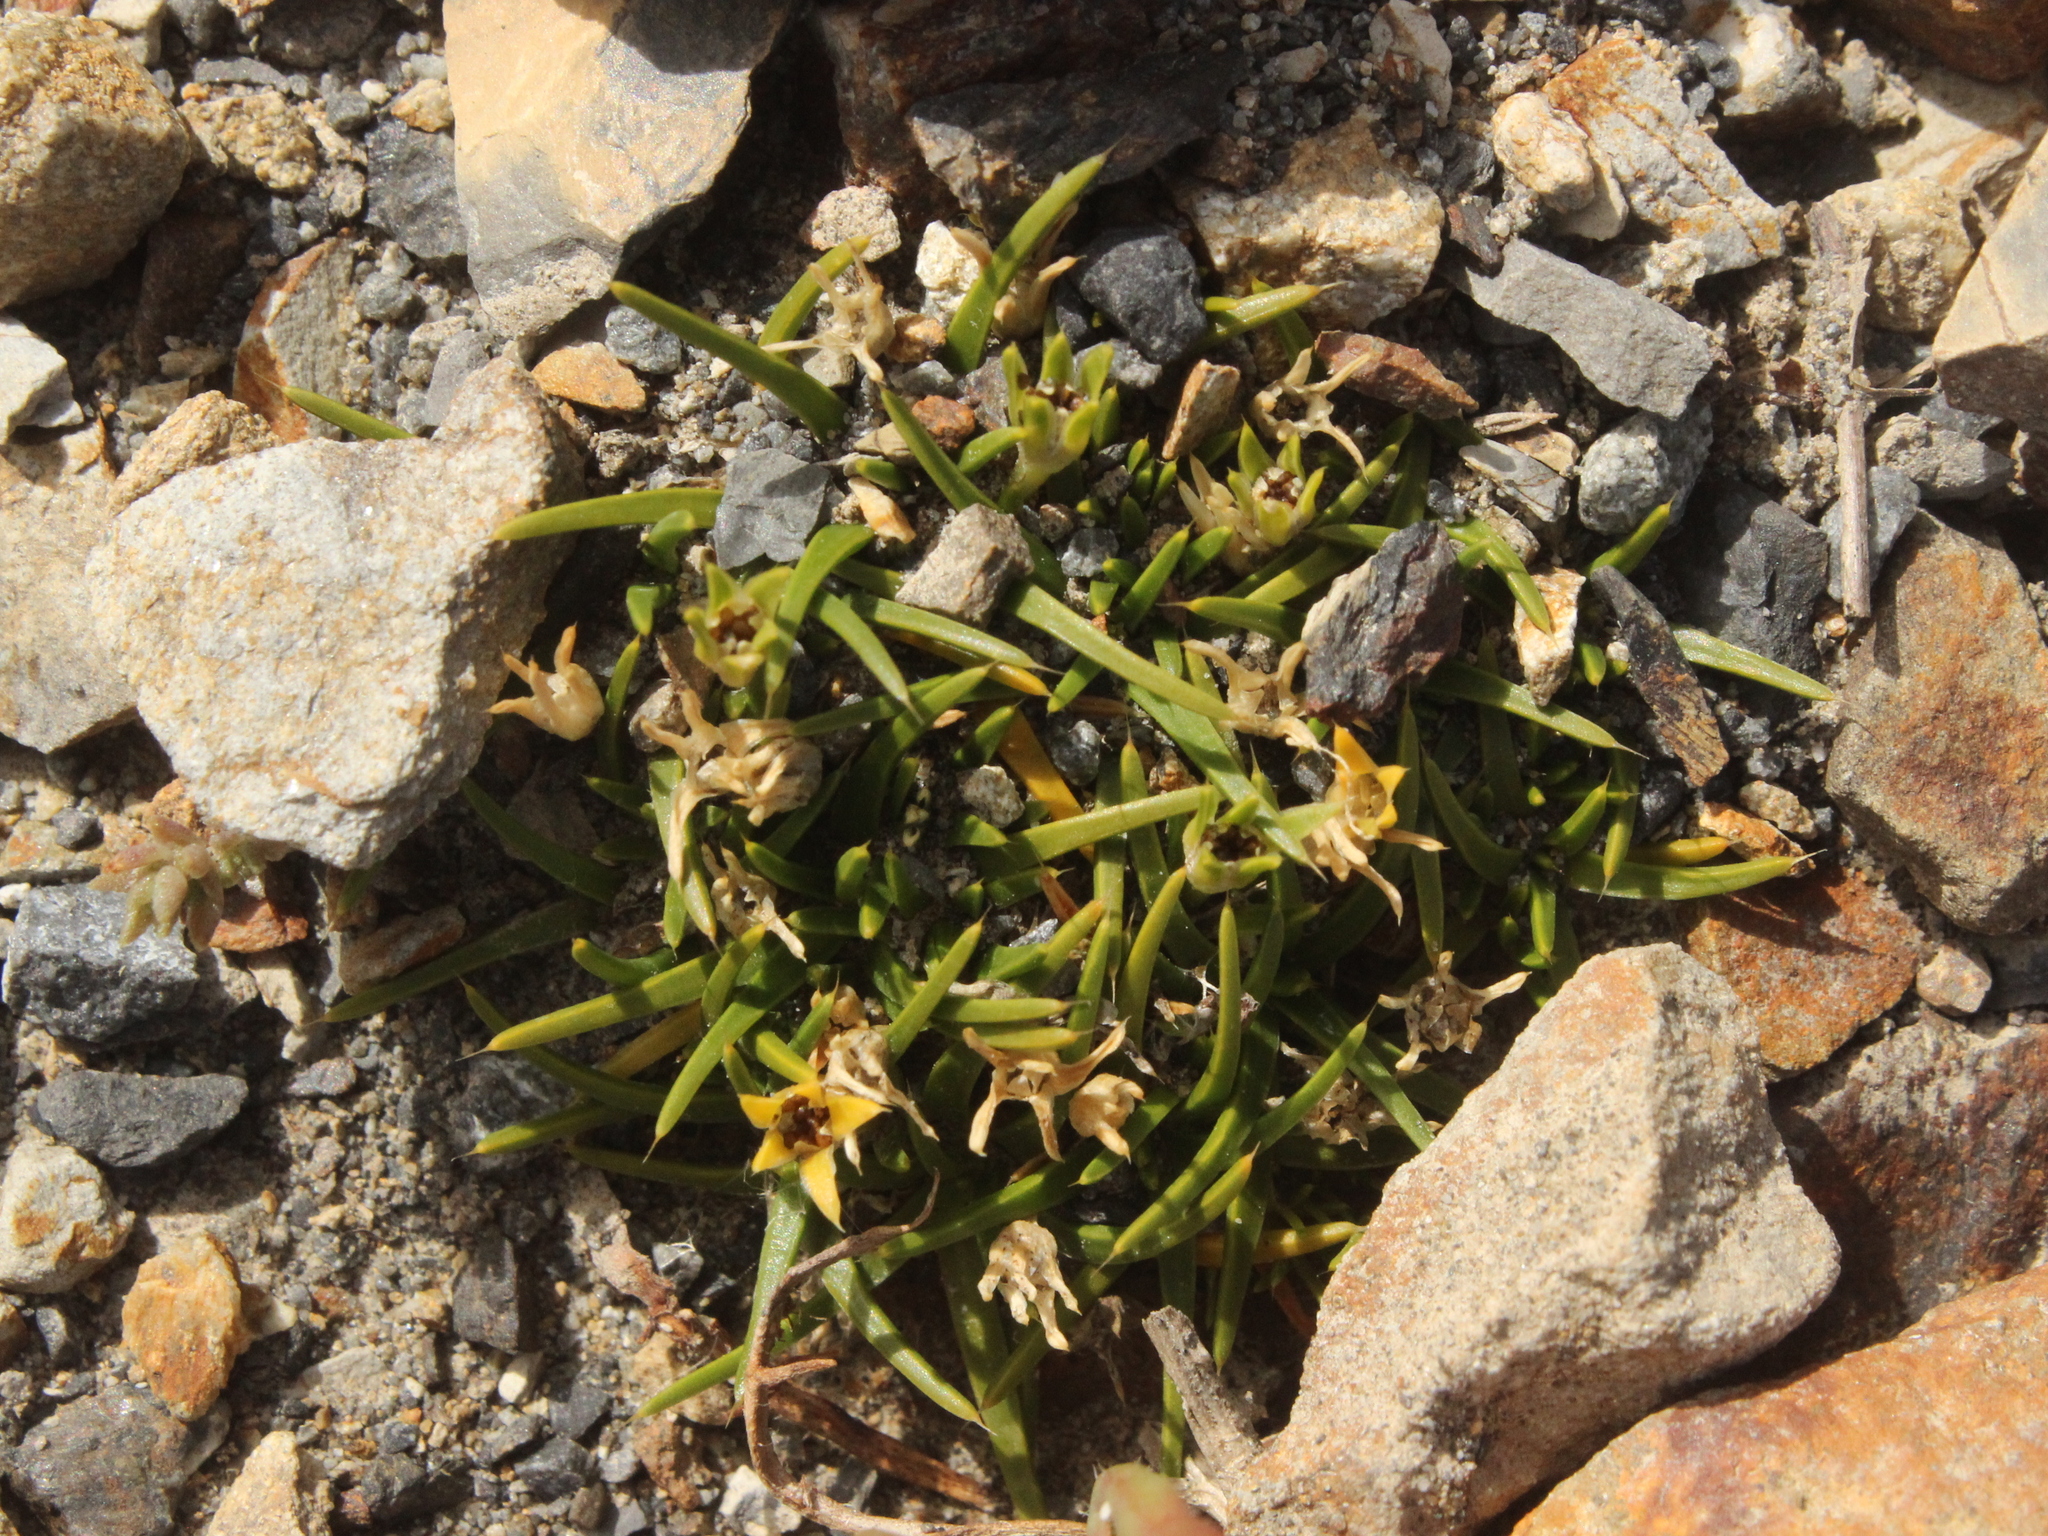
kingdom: Plantae
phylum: Tracheophyta
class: Magnoliopsida
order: Caryophyllales
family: Caryophyllaceae
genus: Colobanthus
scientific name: Colobanthus muelleri
